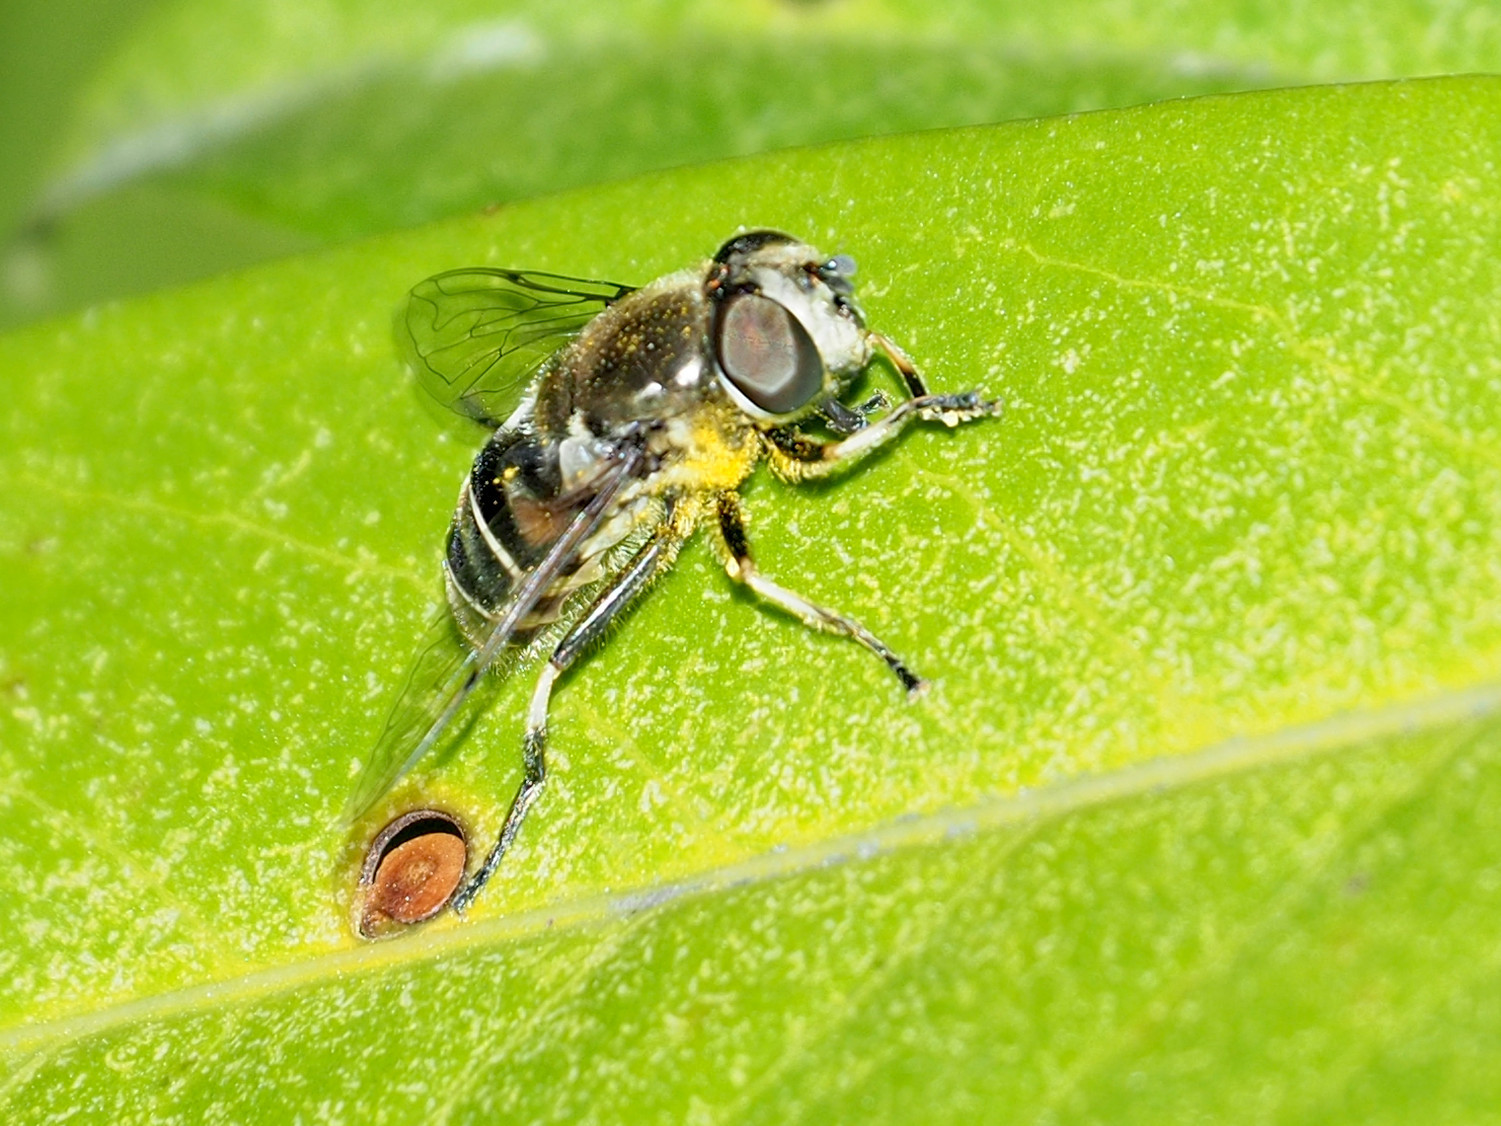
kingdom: Animalia
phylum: Arthropoda
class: Insecta
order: Diptera
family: Syrphidae
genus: Eristalis
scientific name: Eristalis dimidiata
